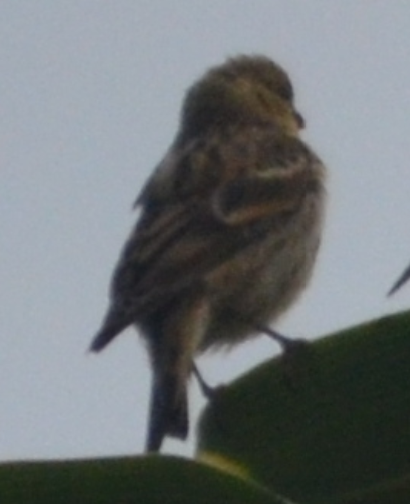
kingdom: Animalia
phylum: Chordata
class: Aves
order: Passeriformes
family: Fringillidae
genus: Serinus
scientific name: Serinus serinus
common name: European serin
